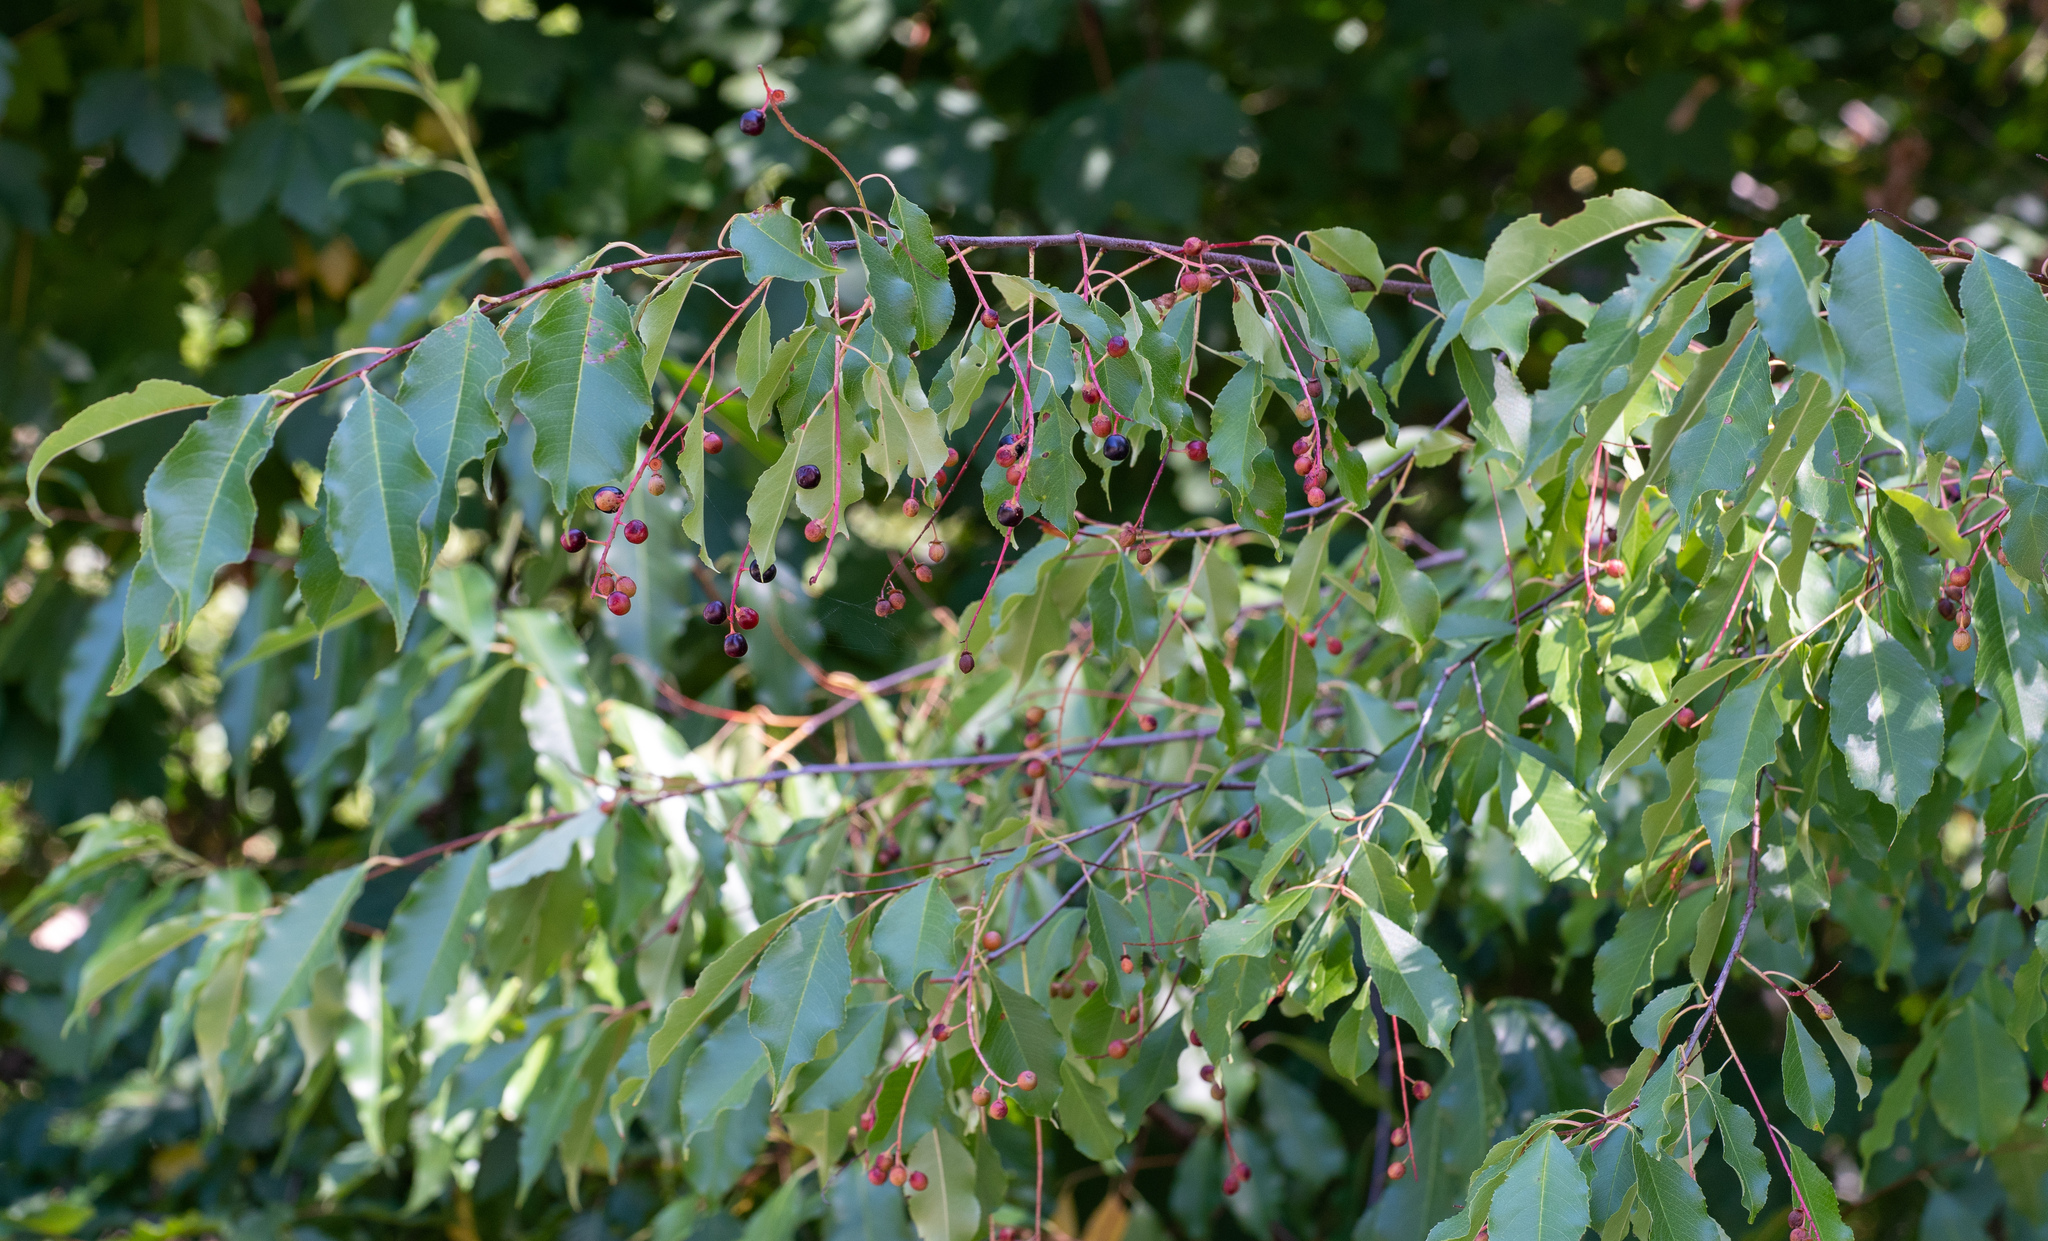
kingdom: Plantae
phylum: Tracheophyta
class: Magnoliopsida
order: Rosales
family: Rosaceae
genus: Prunus
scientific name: Prunus serotina
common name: Black cherry
